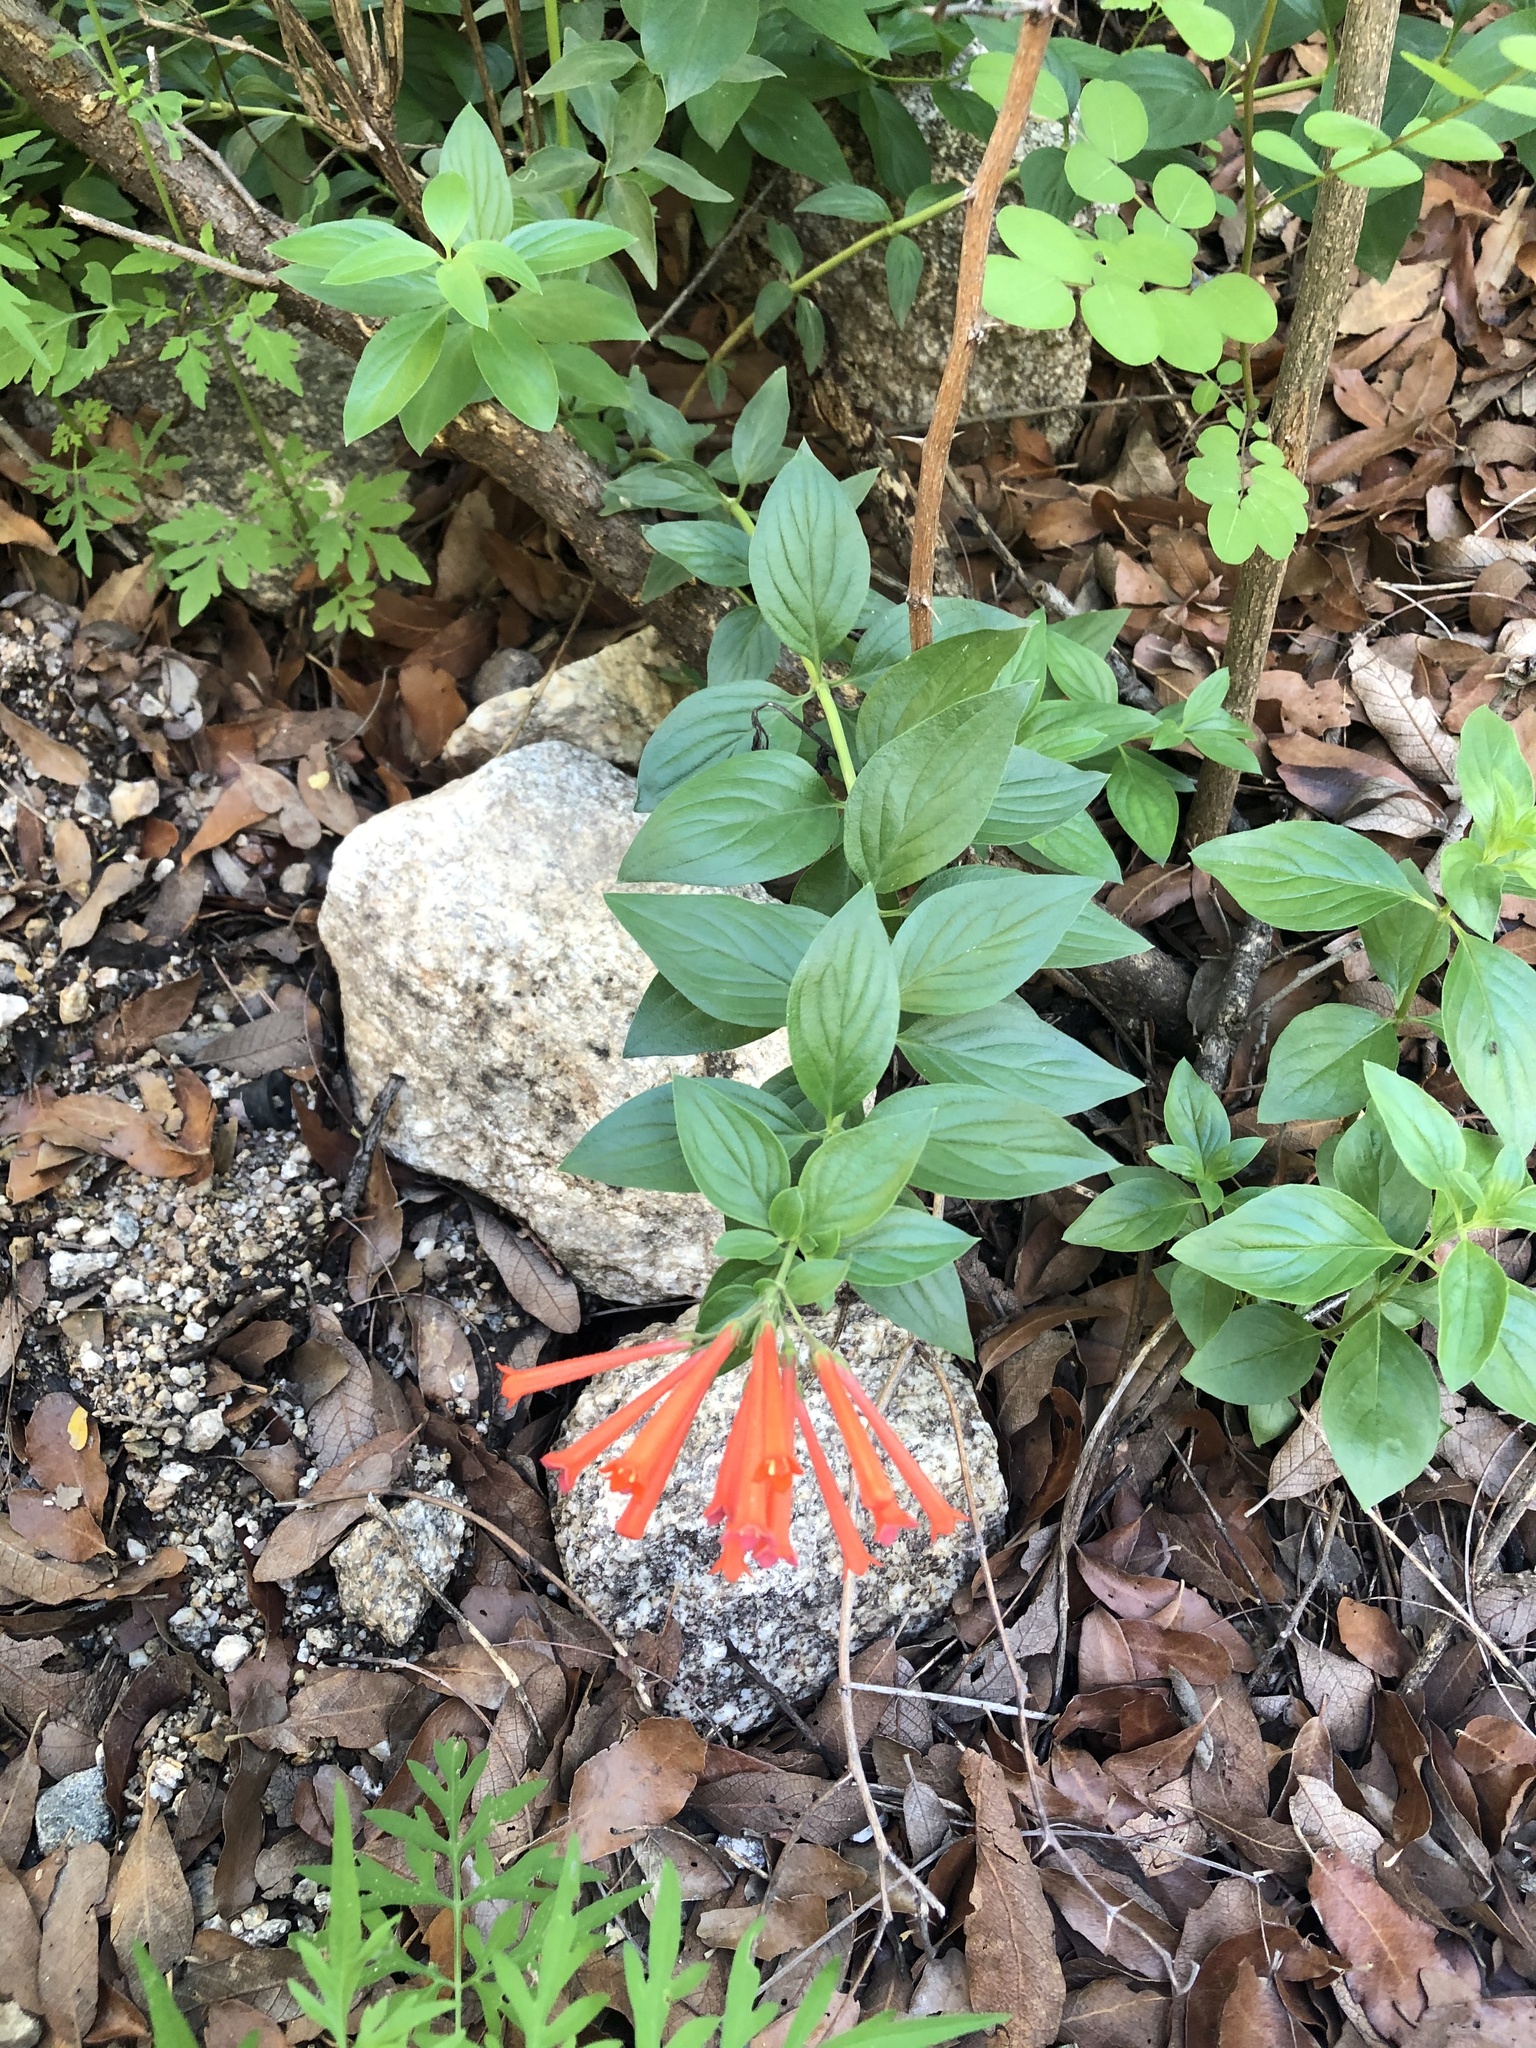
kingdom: Plantae
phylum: Tracheophyta
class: Magnoliopsida
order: Gentianales
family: Rubiaceae
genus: Bouvardia
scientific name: Bouvardia ternifolia
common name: Scarlet bouvardia
